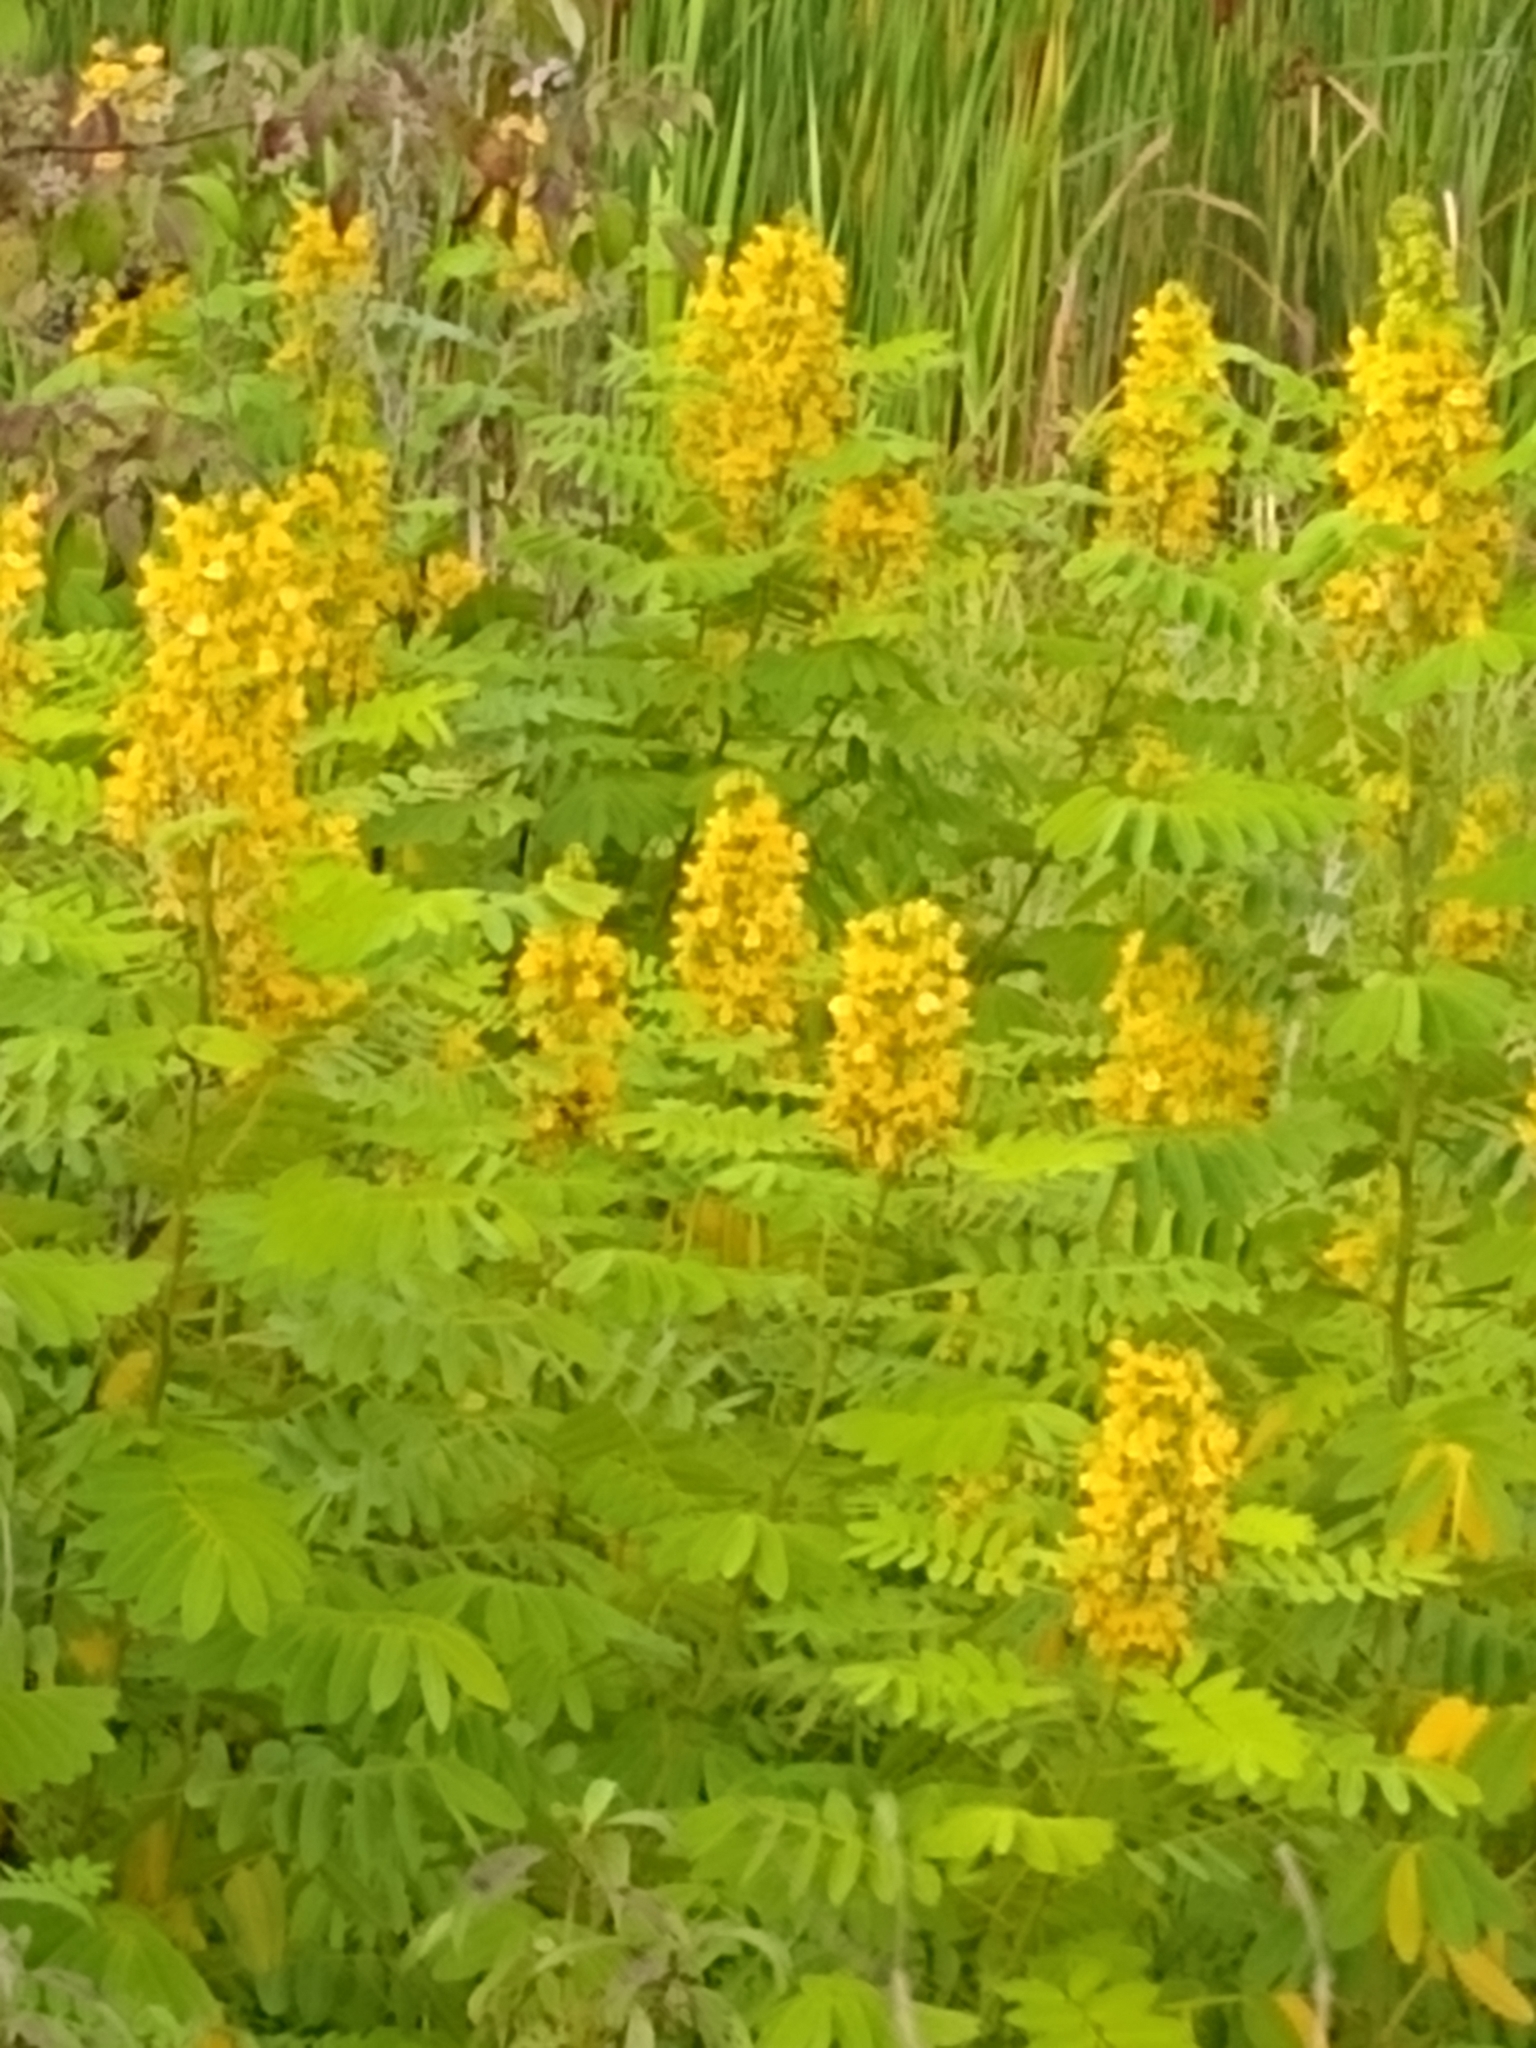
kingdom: Plantae
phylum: Tracheophyta
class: Magnoliopsida
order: Fabales
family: Fabaceae
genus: Senna
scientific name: Senna hebecarpa
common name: Wild senna
